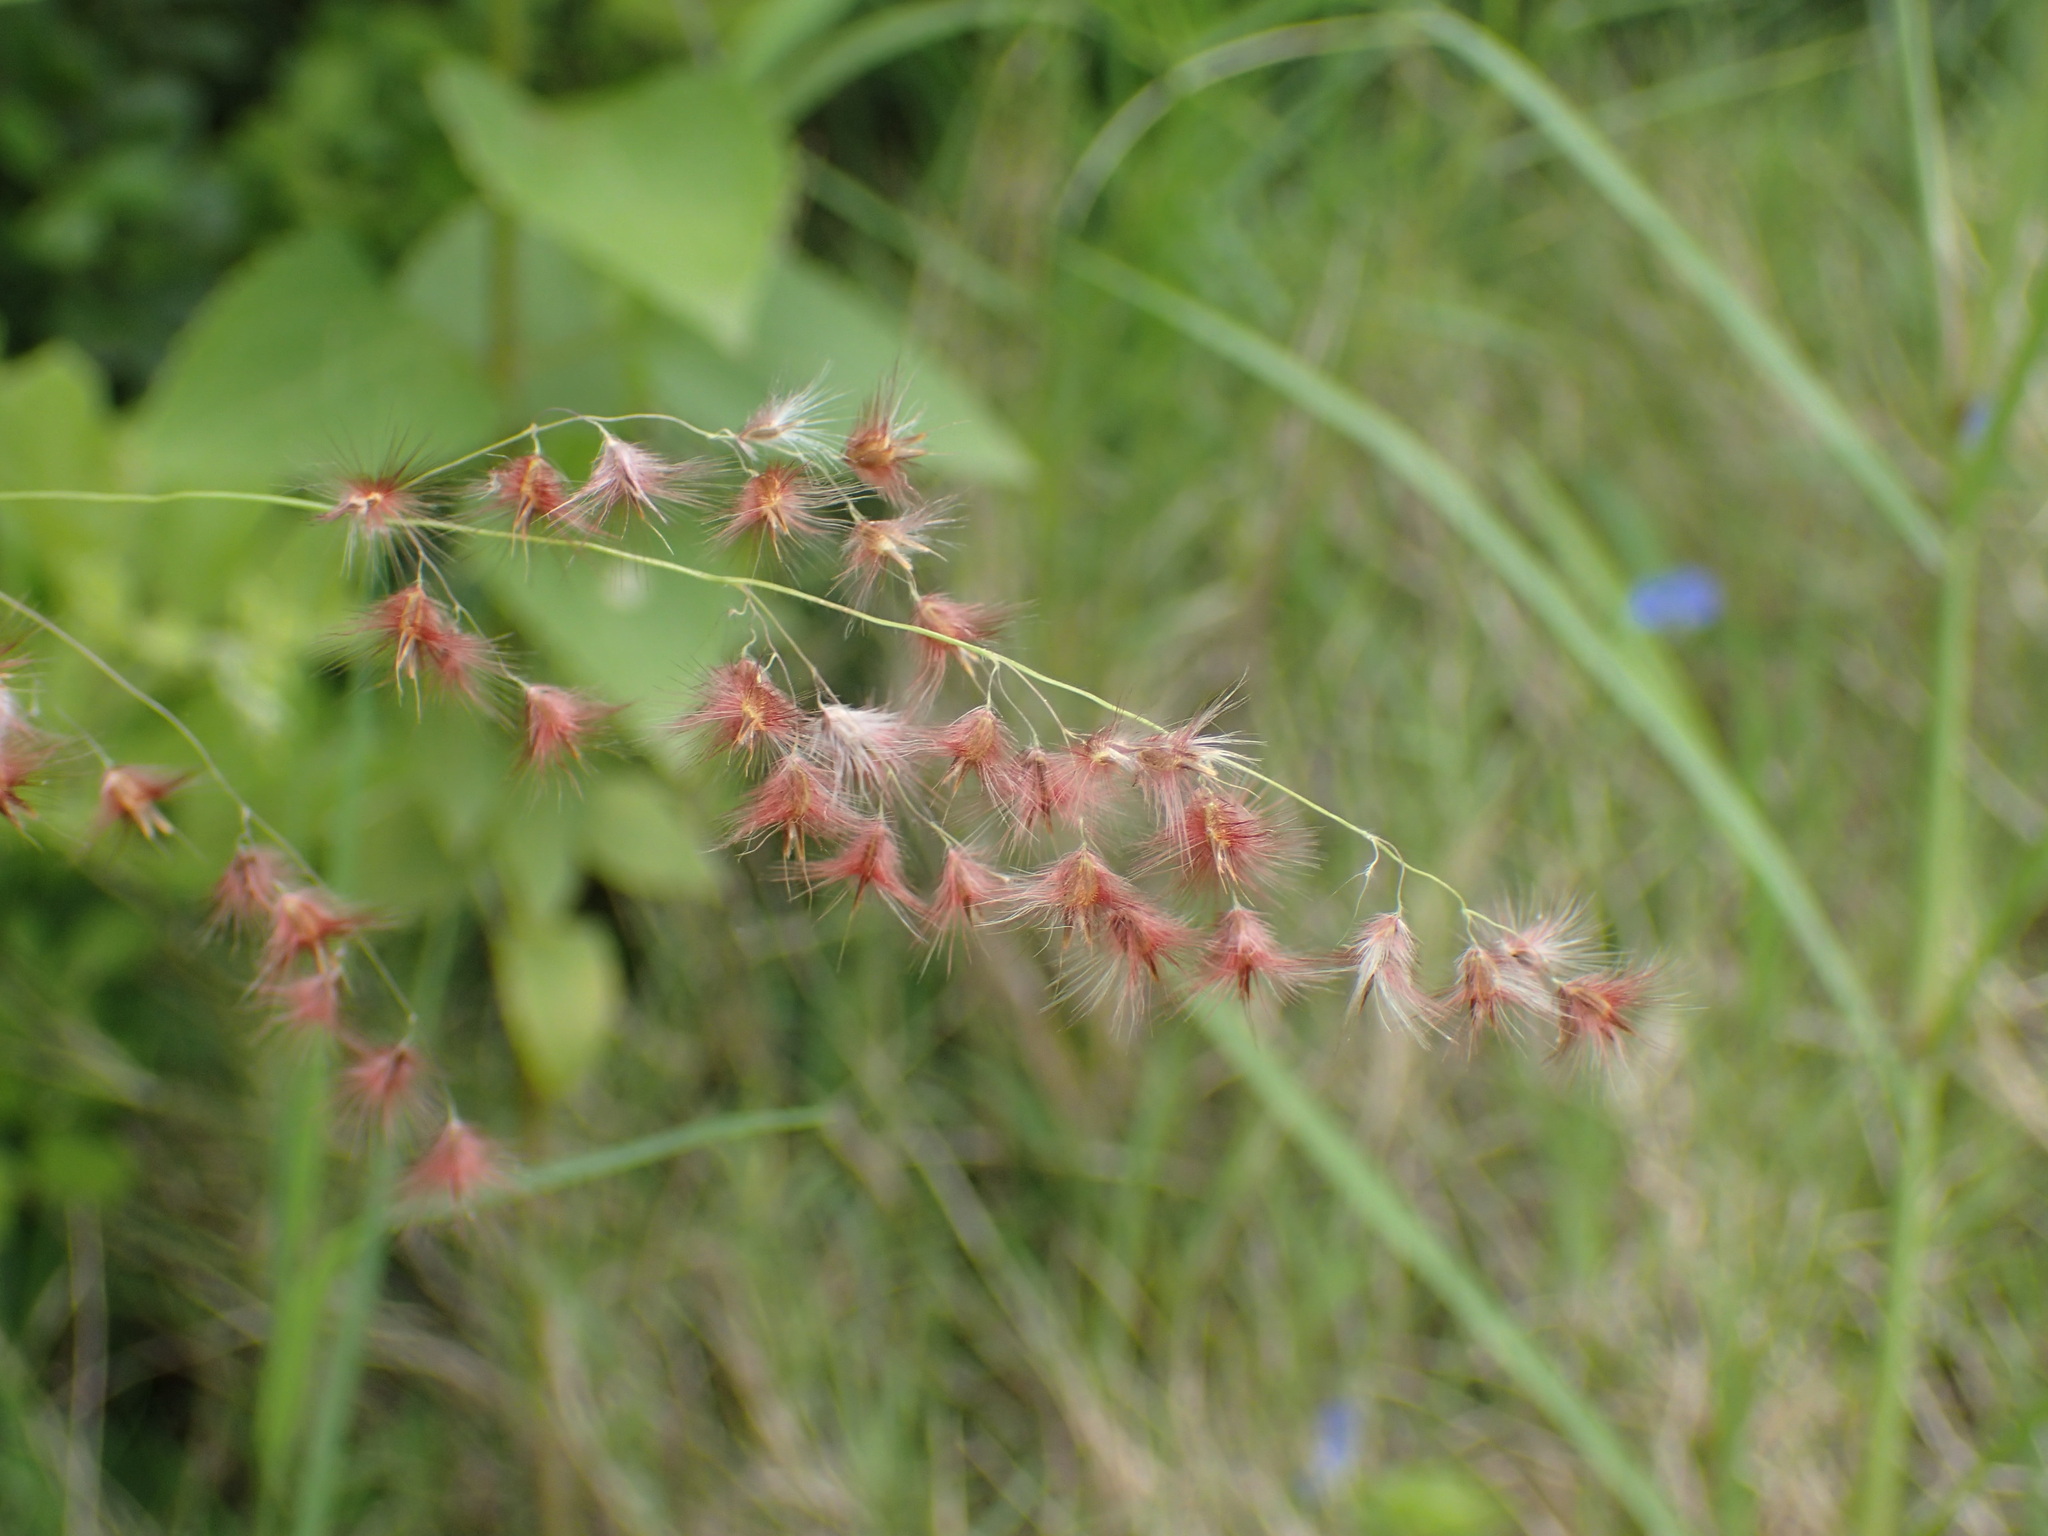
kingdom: Plantae
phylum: Tracheophyta
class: Liliopsida
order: Poales
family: Poaceae
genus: Melinis
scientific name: Melinis repens
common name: Rose natal grass
